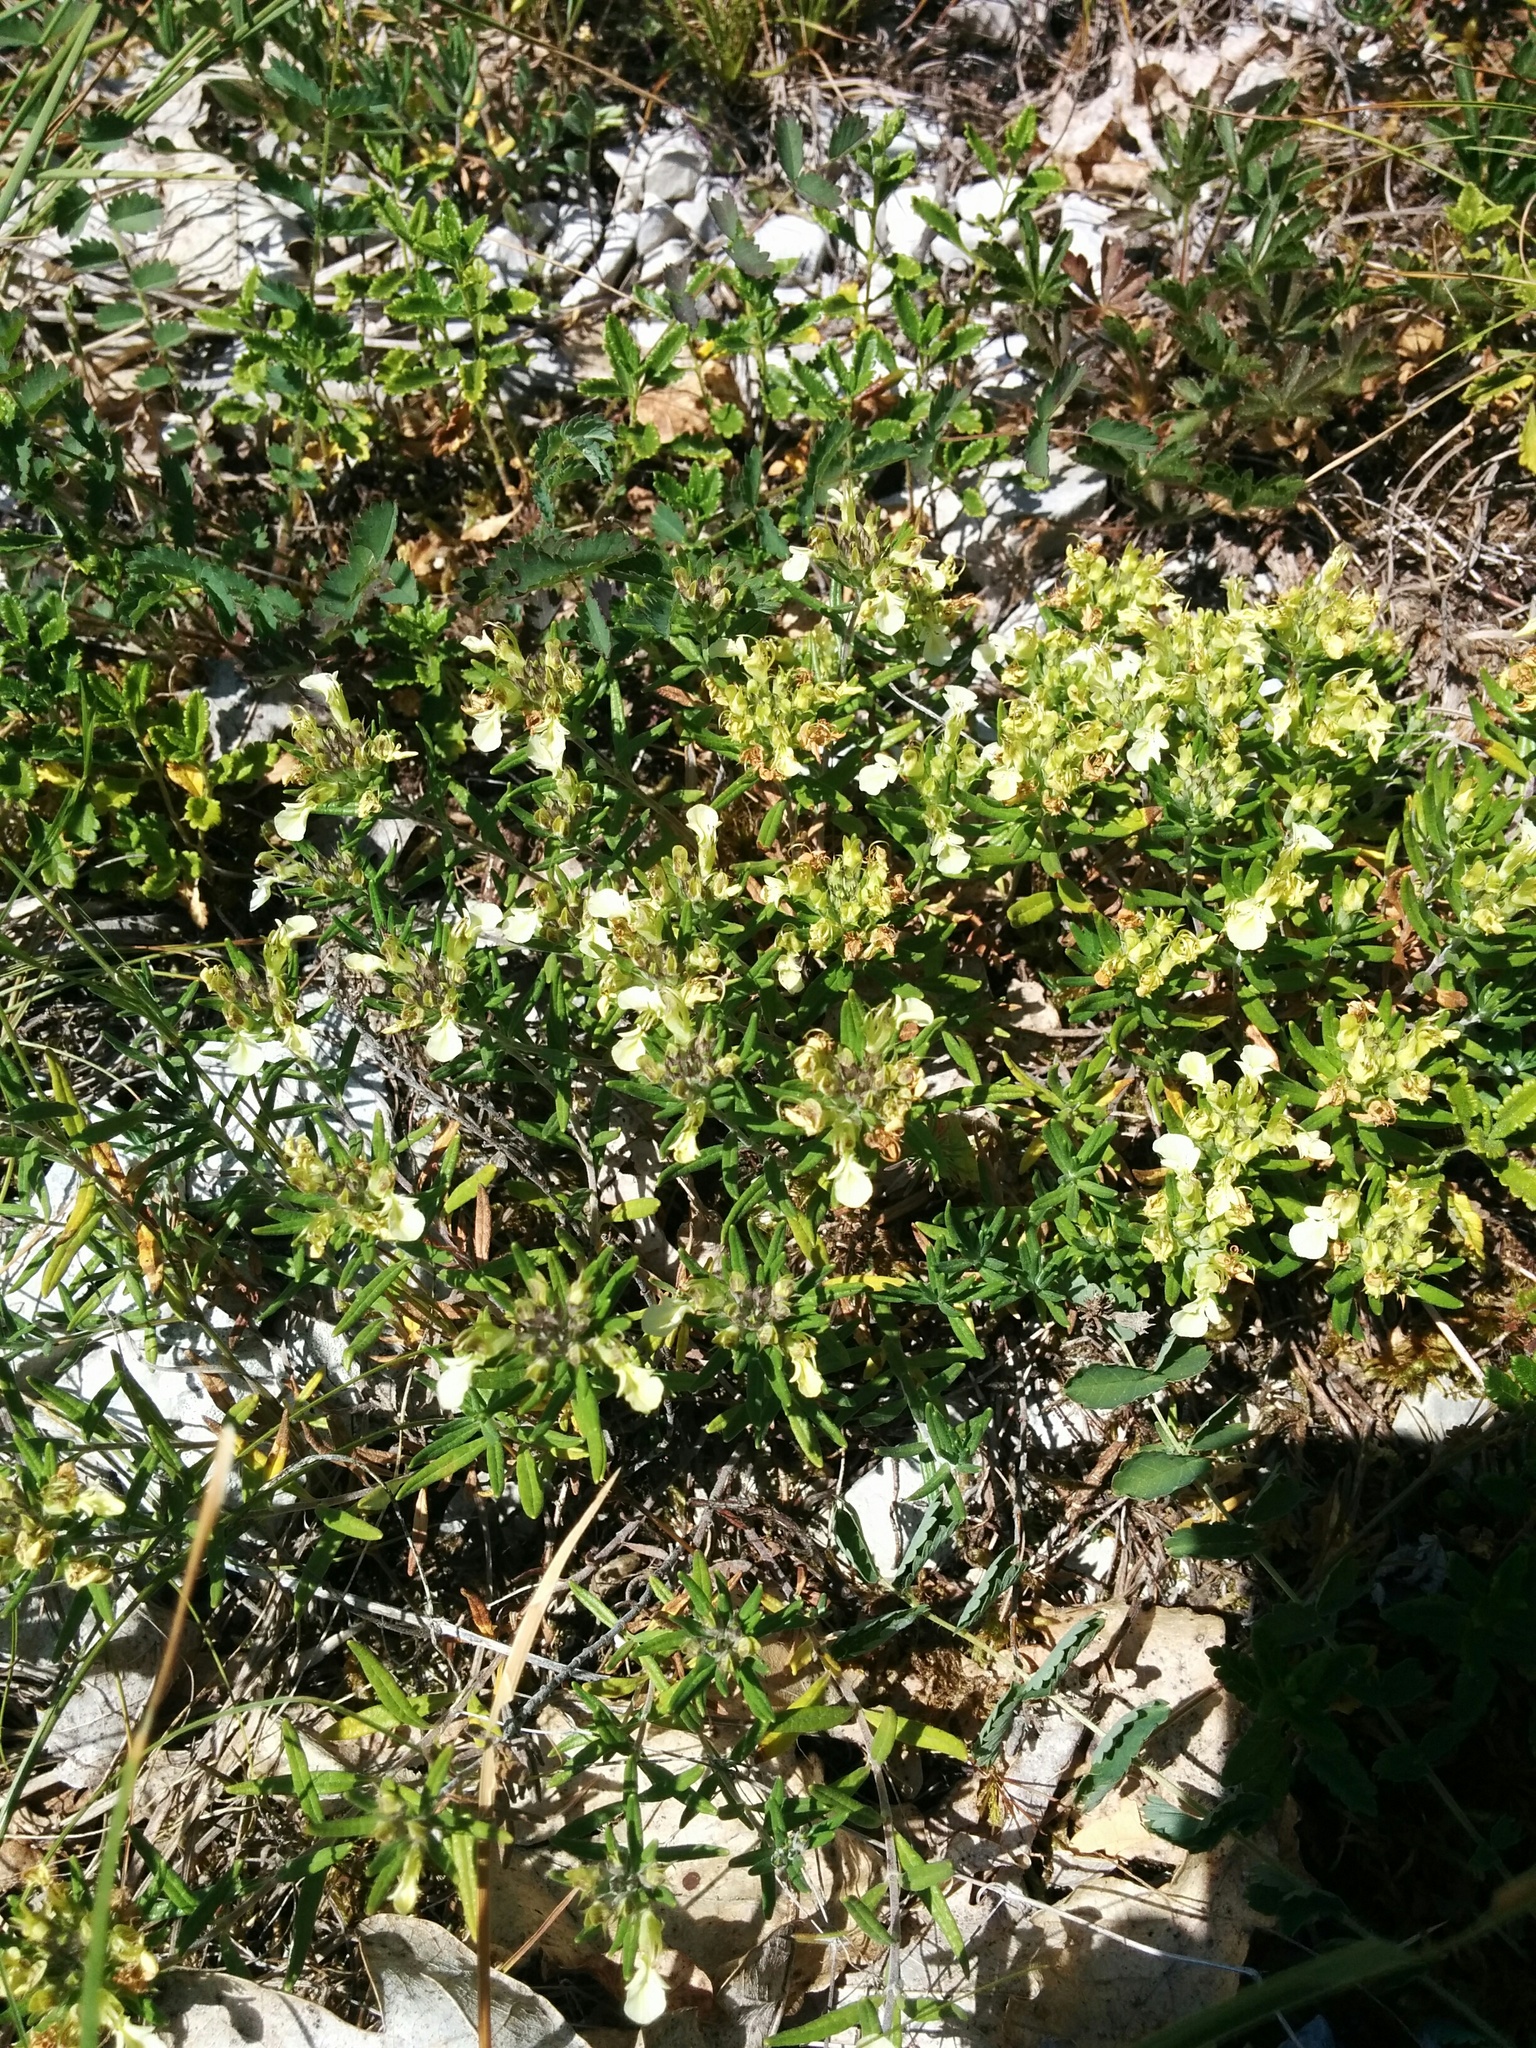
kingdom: Plantae
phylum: Tracheophyta
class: Magnoliopsida
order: Lamiales
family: Lamiaceae
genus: Teucrium
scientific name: Teucrium montanum
